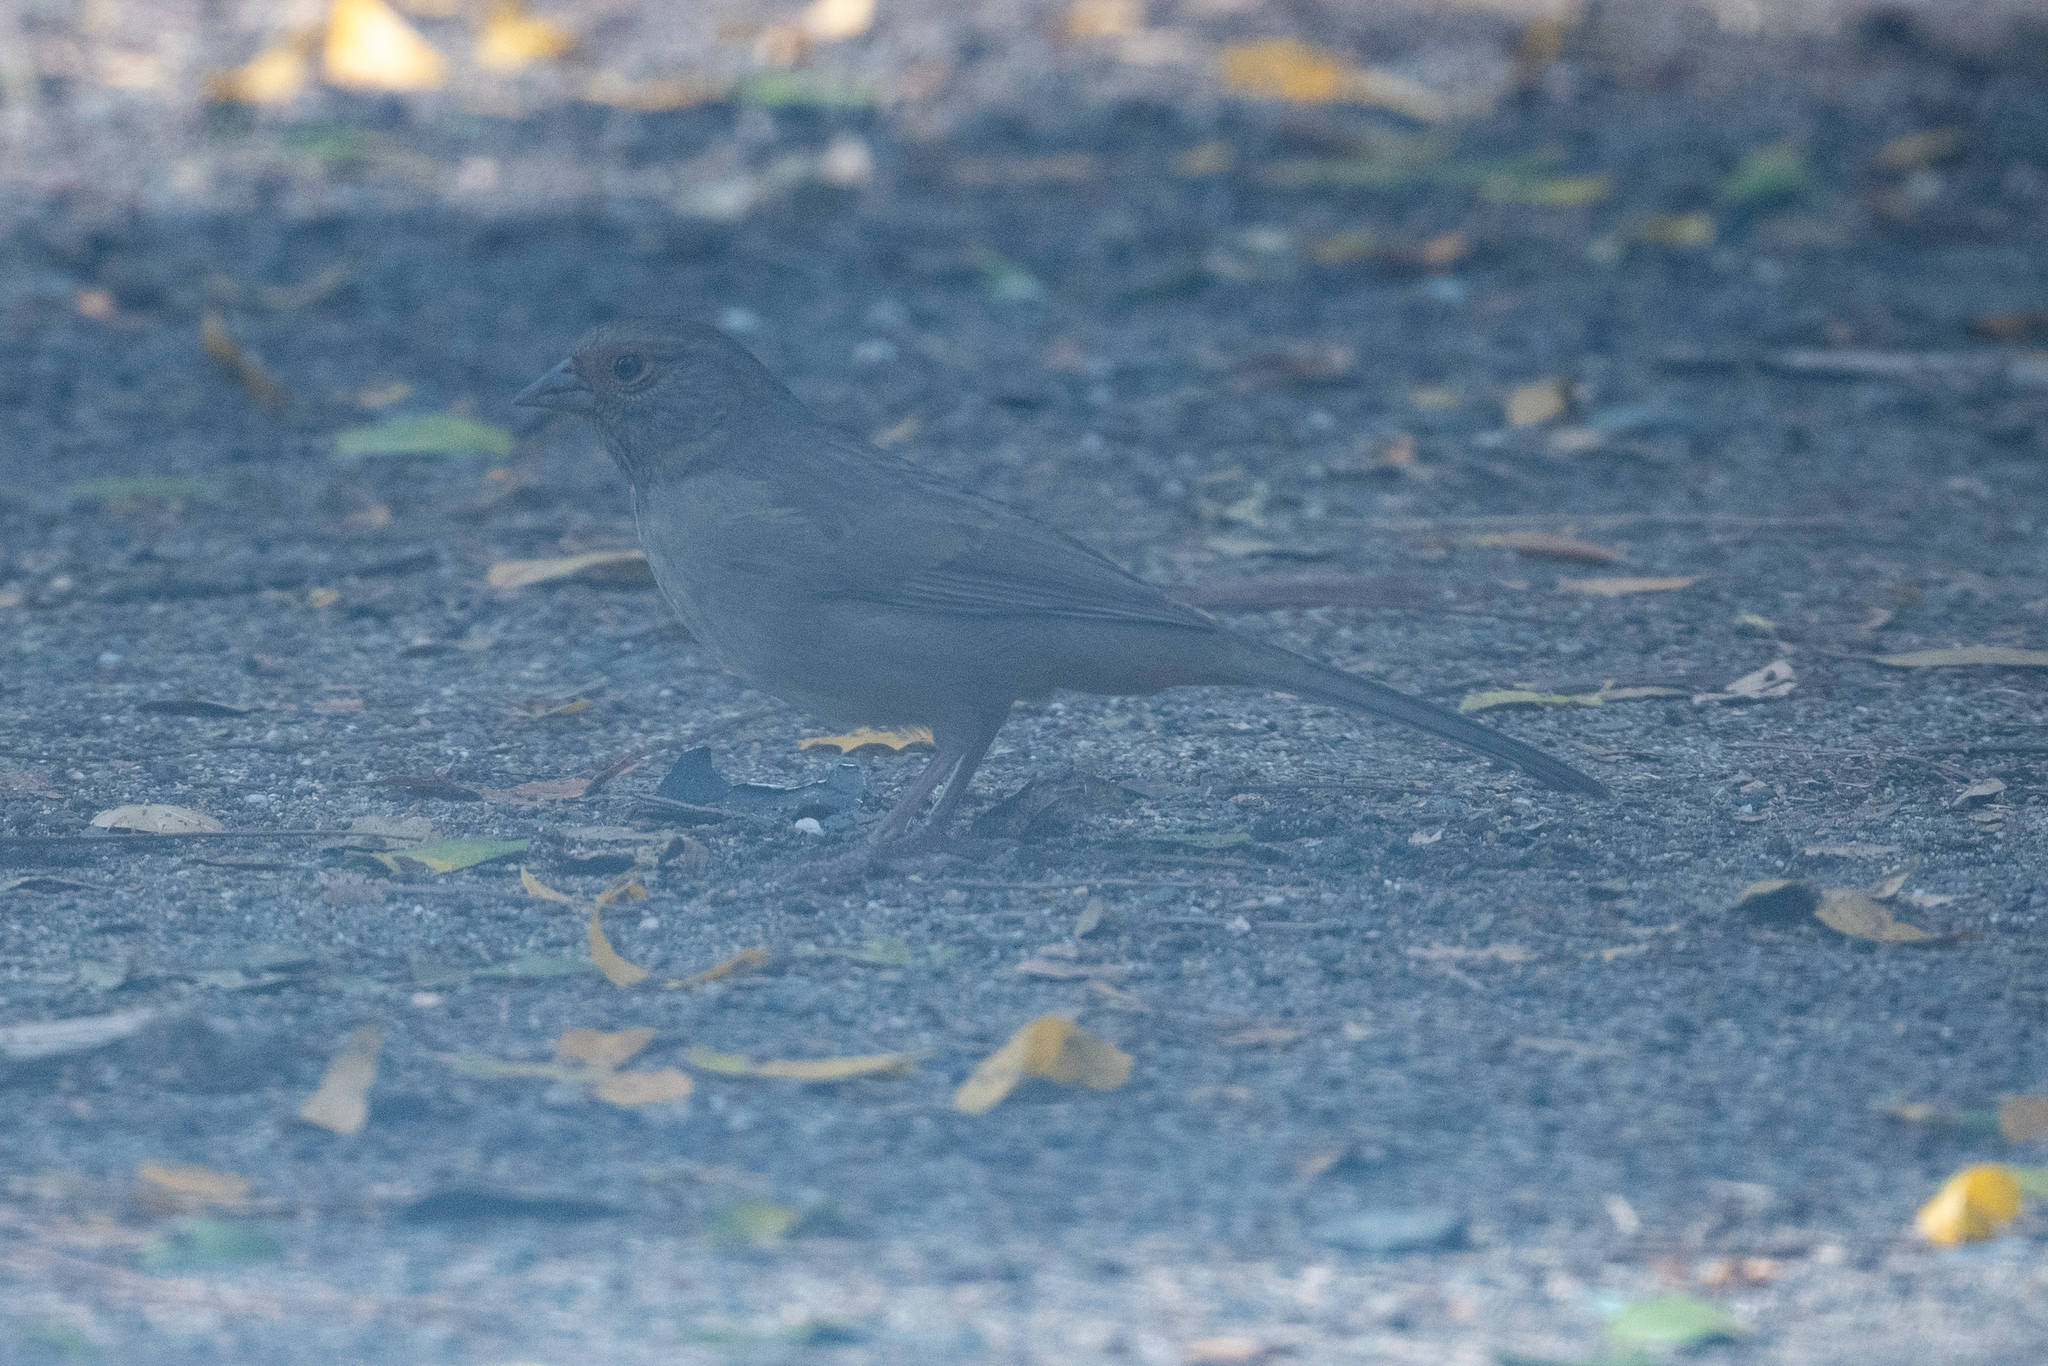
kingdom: Animalia
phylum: Chordata
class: Aves
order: Passeriformes
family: Passerellidae
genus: Melozone
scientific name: Melozone crissalis
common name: California towhee
